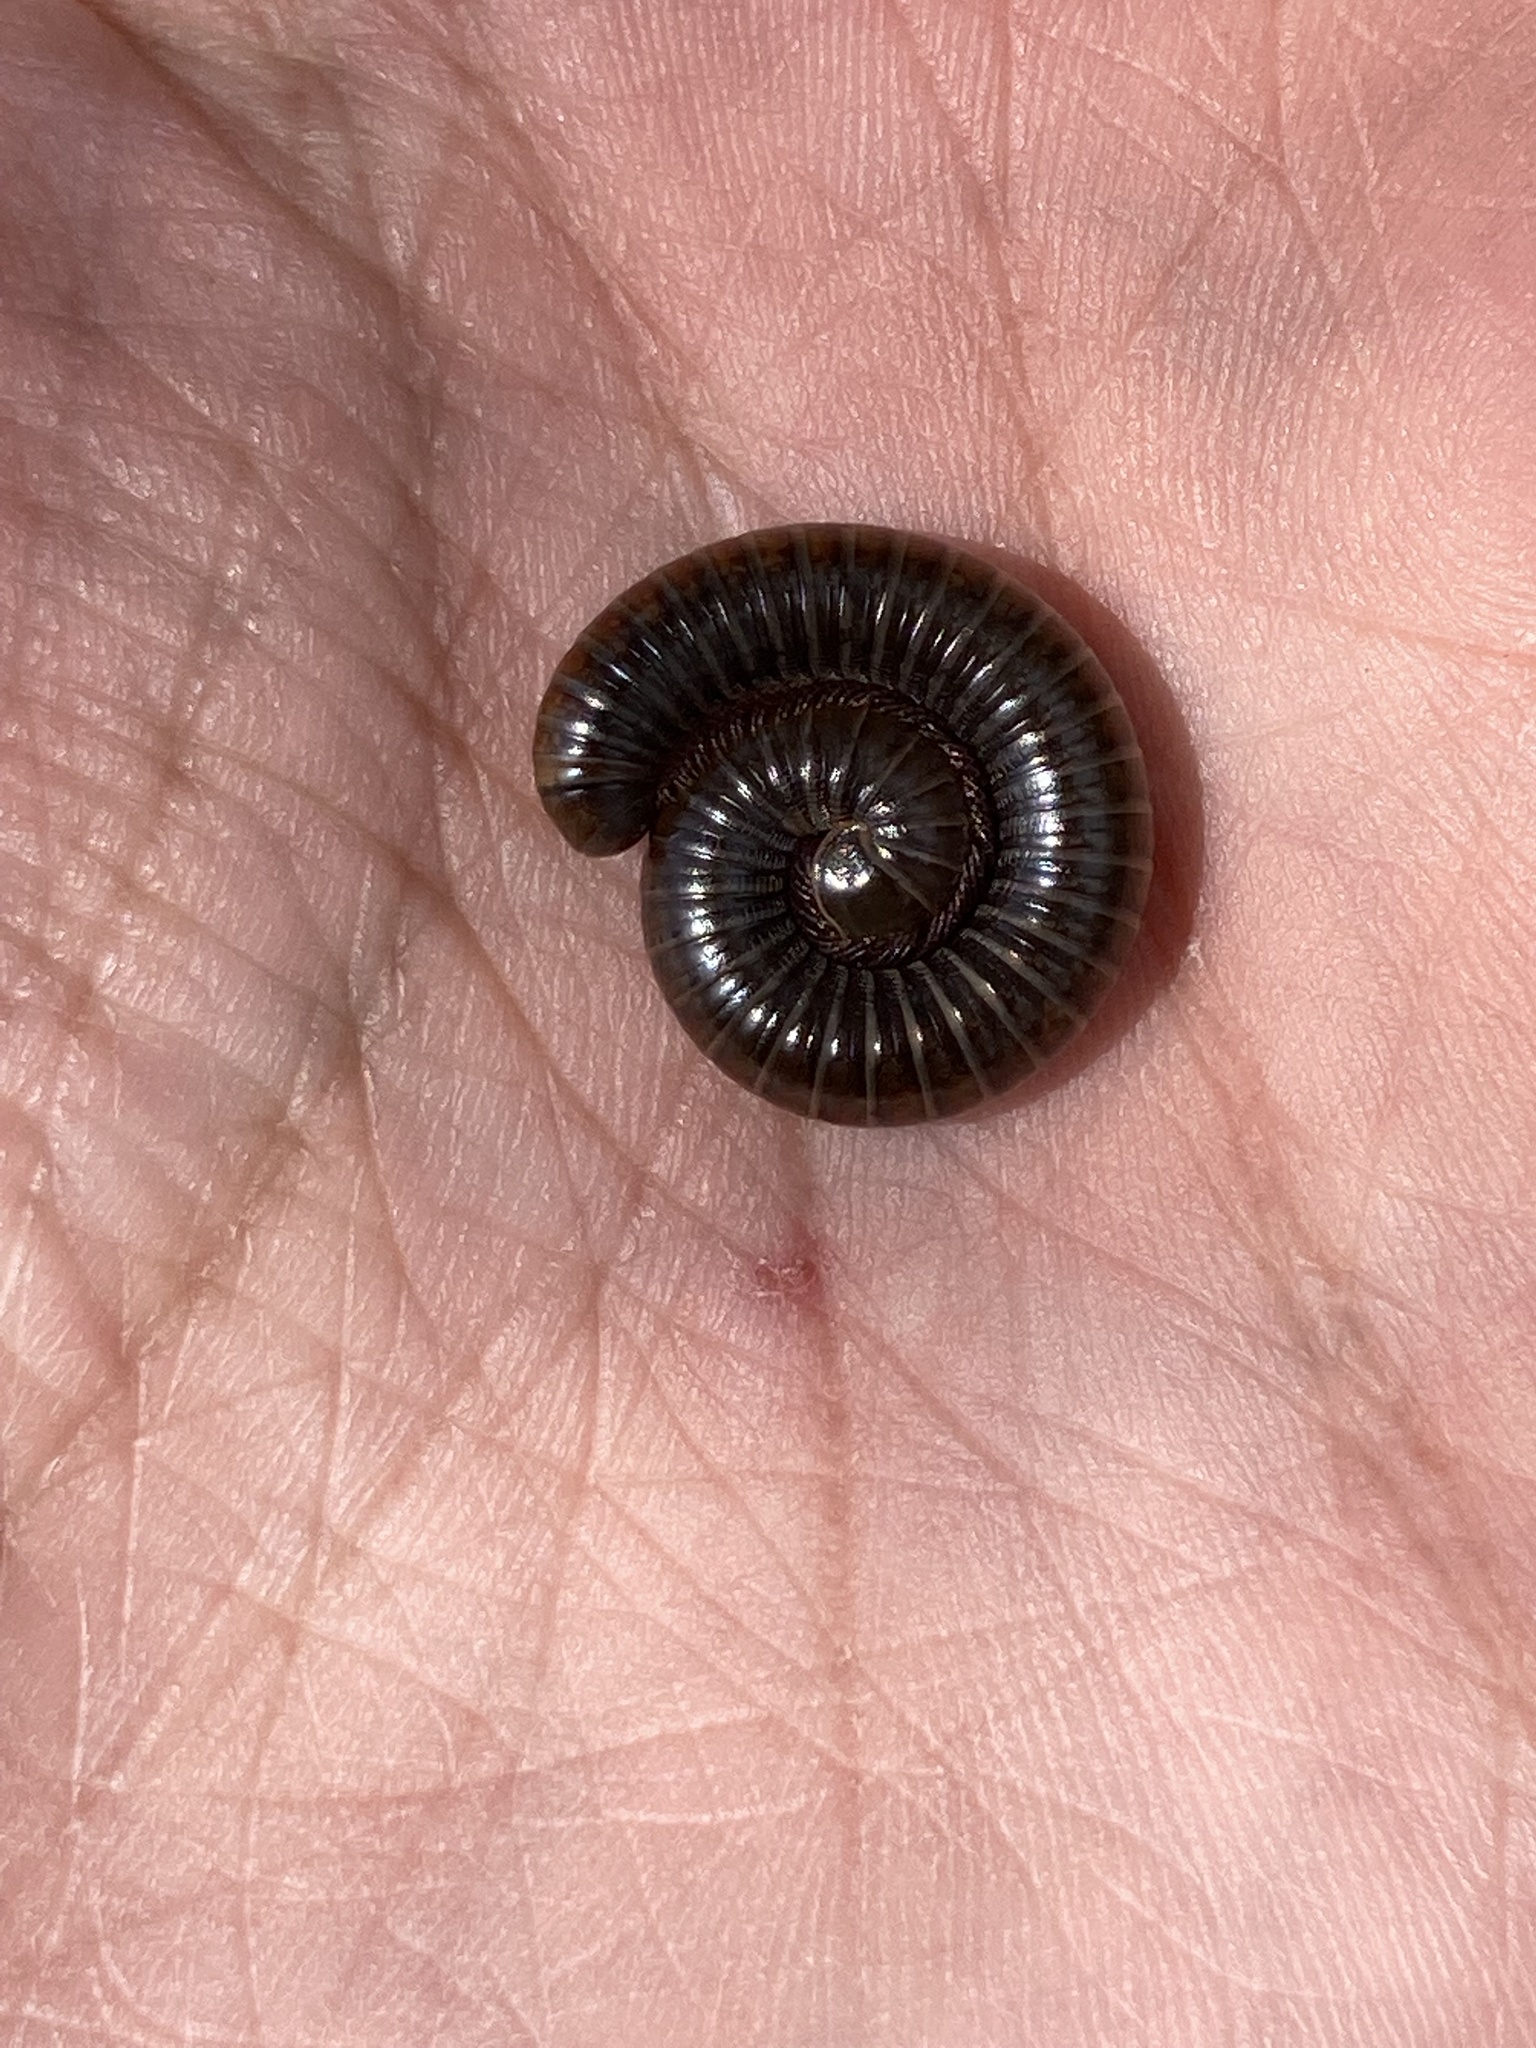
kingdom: Animalia
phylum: Arthropoda
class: Diplopoda
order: Spirostreptida
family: Choctellidae
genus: Choctella
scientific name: Choctella cumminsi
